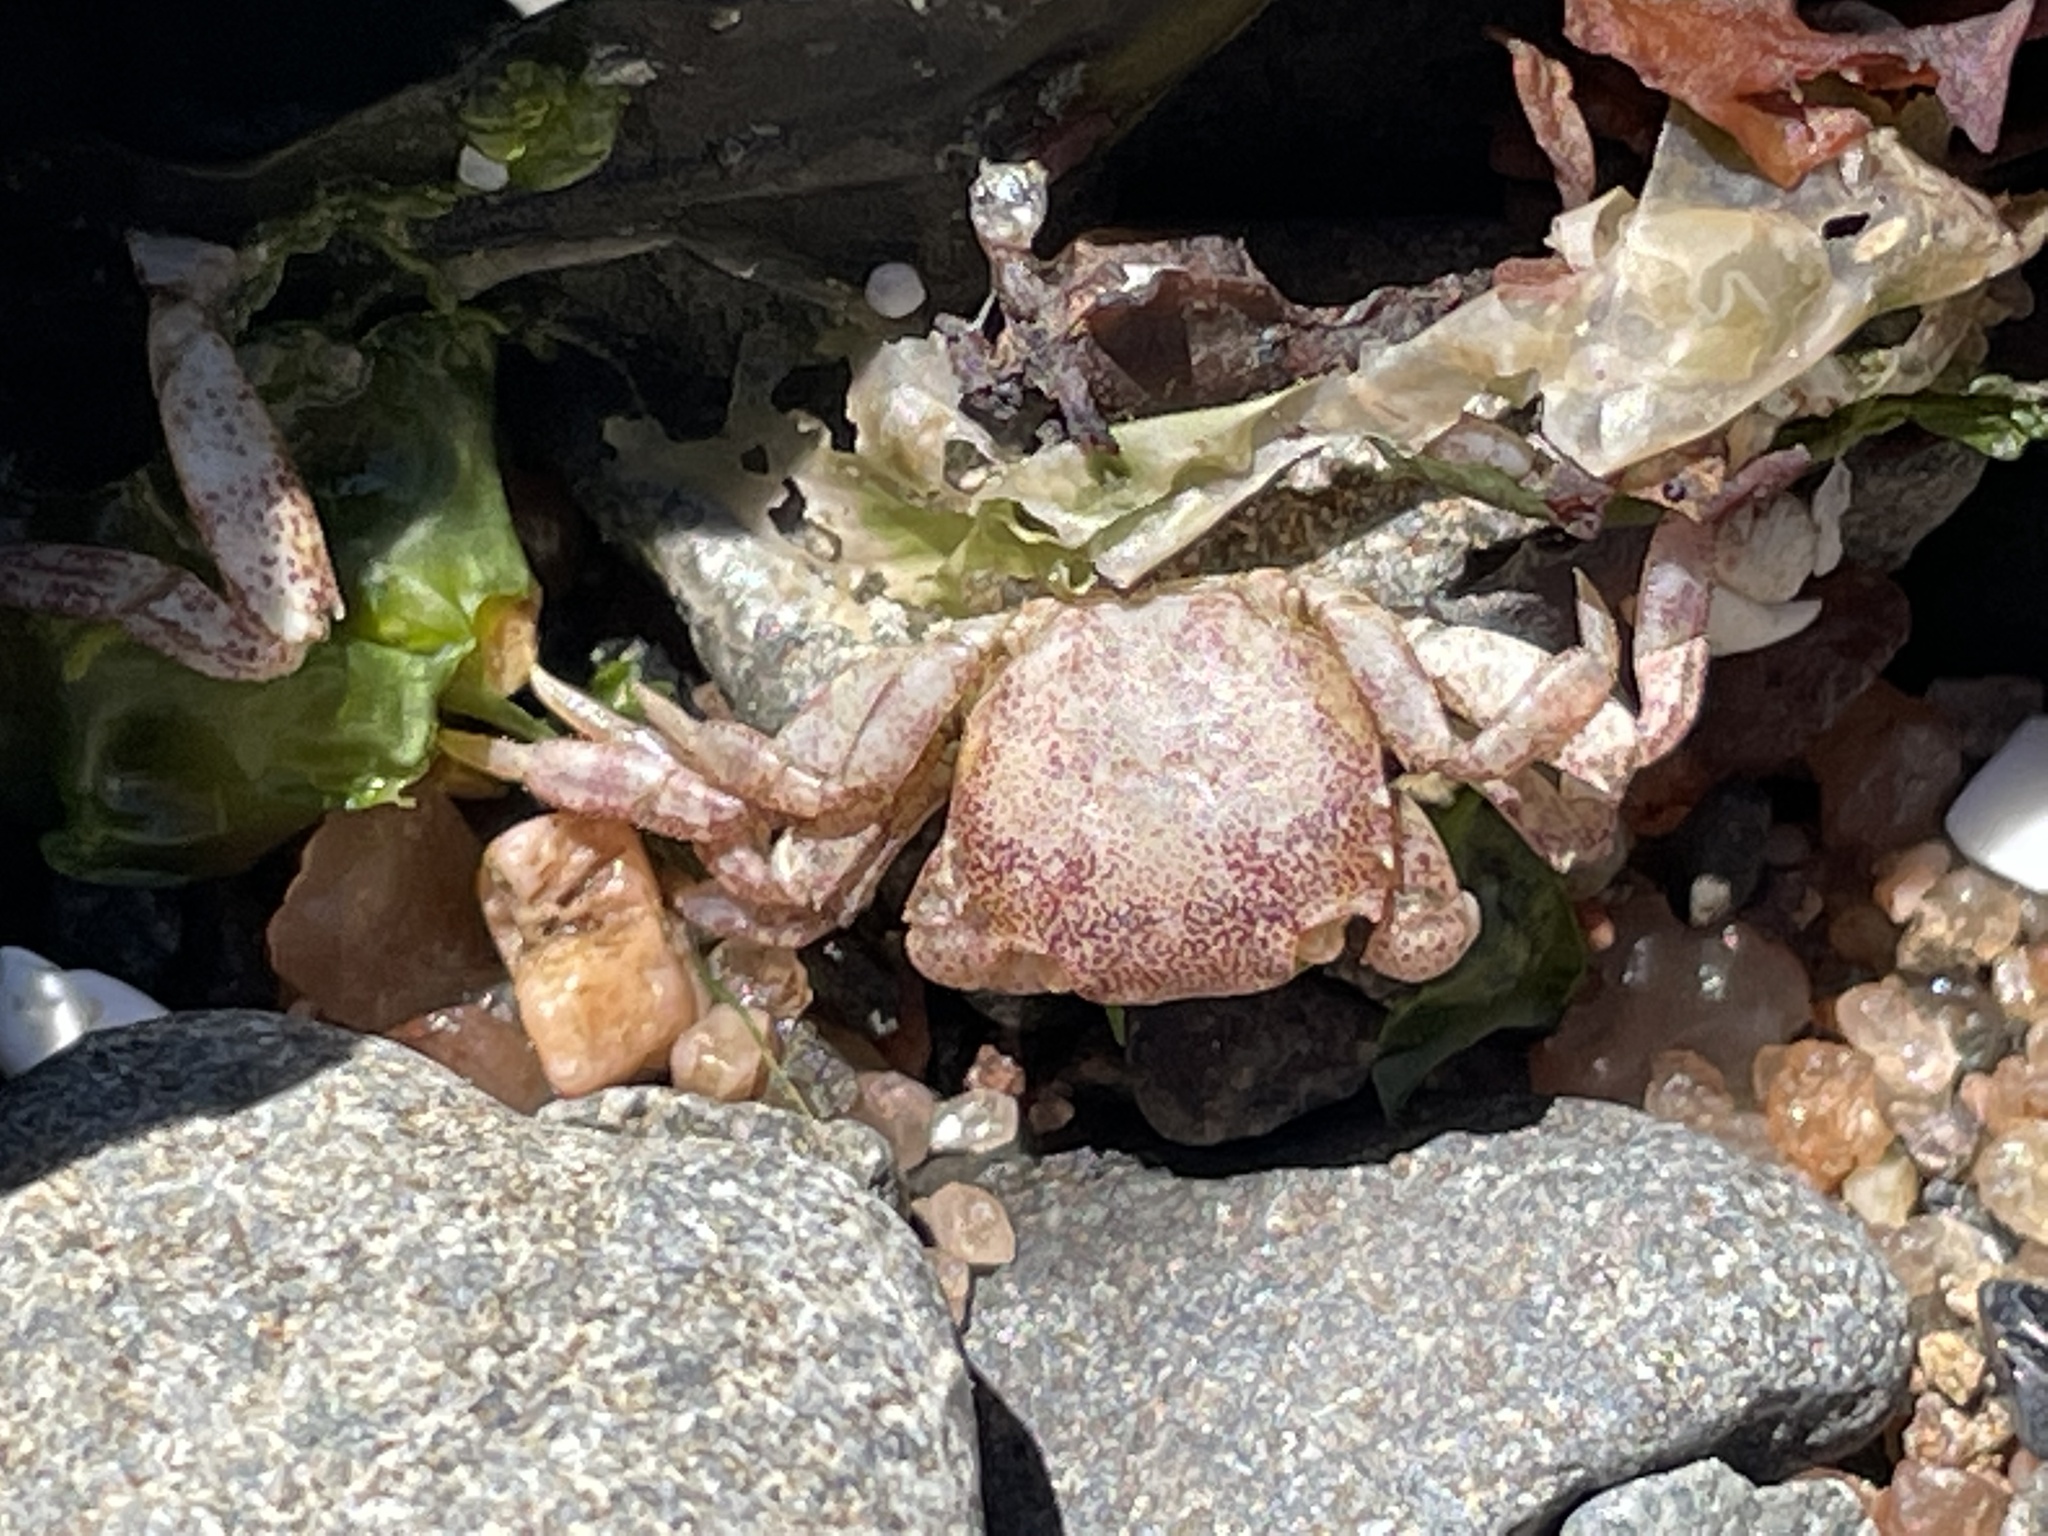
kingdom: Animalia
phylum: Arthropoda
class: Malacostraca
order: Decapoda
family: Varunidae
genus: Hemigrapsus
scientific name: Hemigrapsus sanguineus
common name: Asian shore crab
